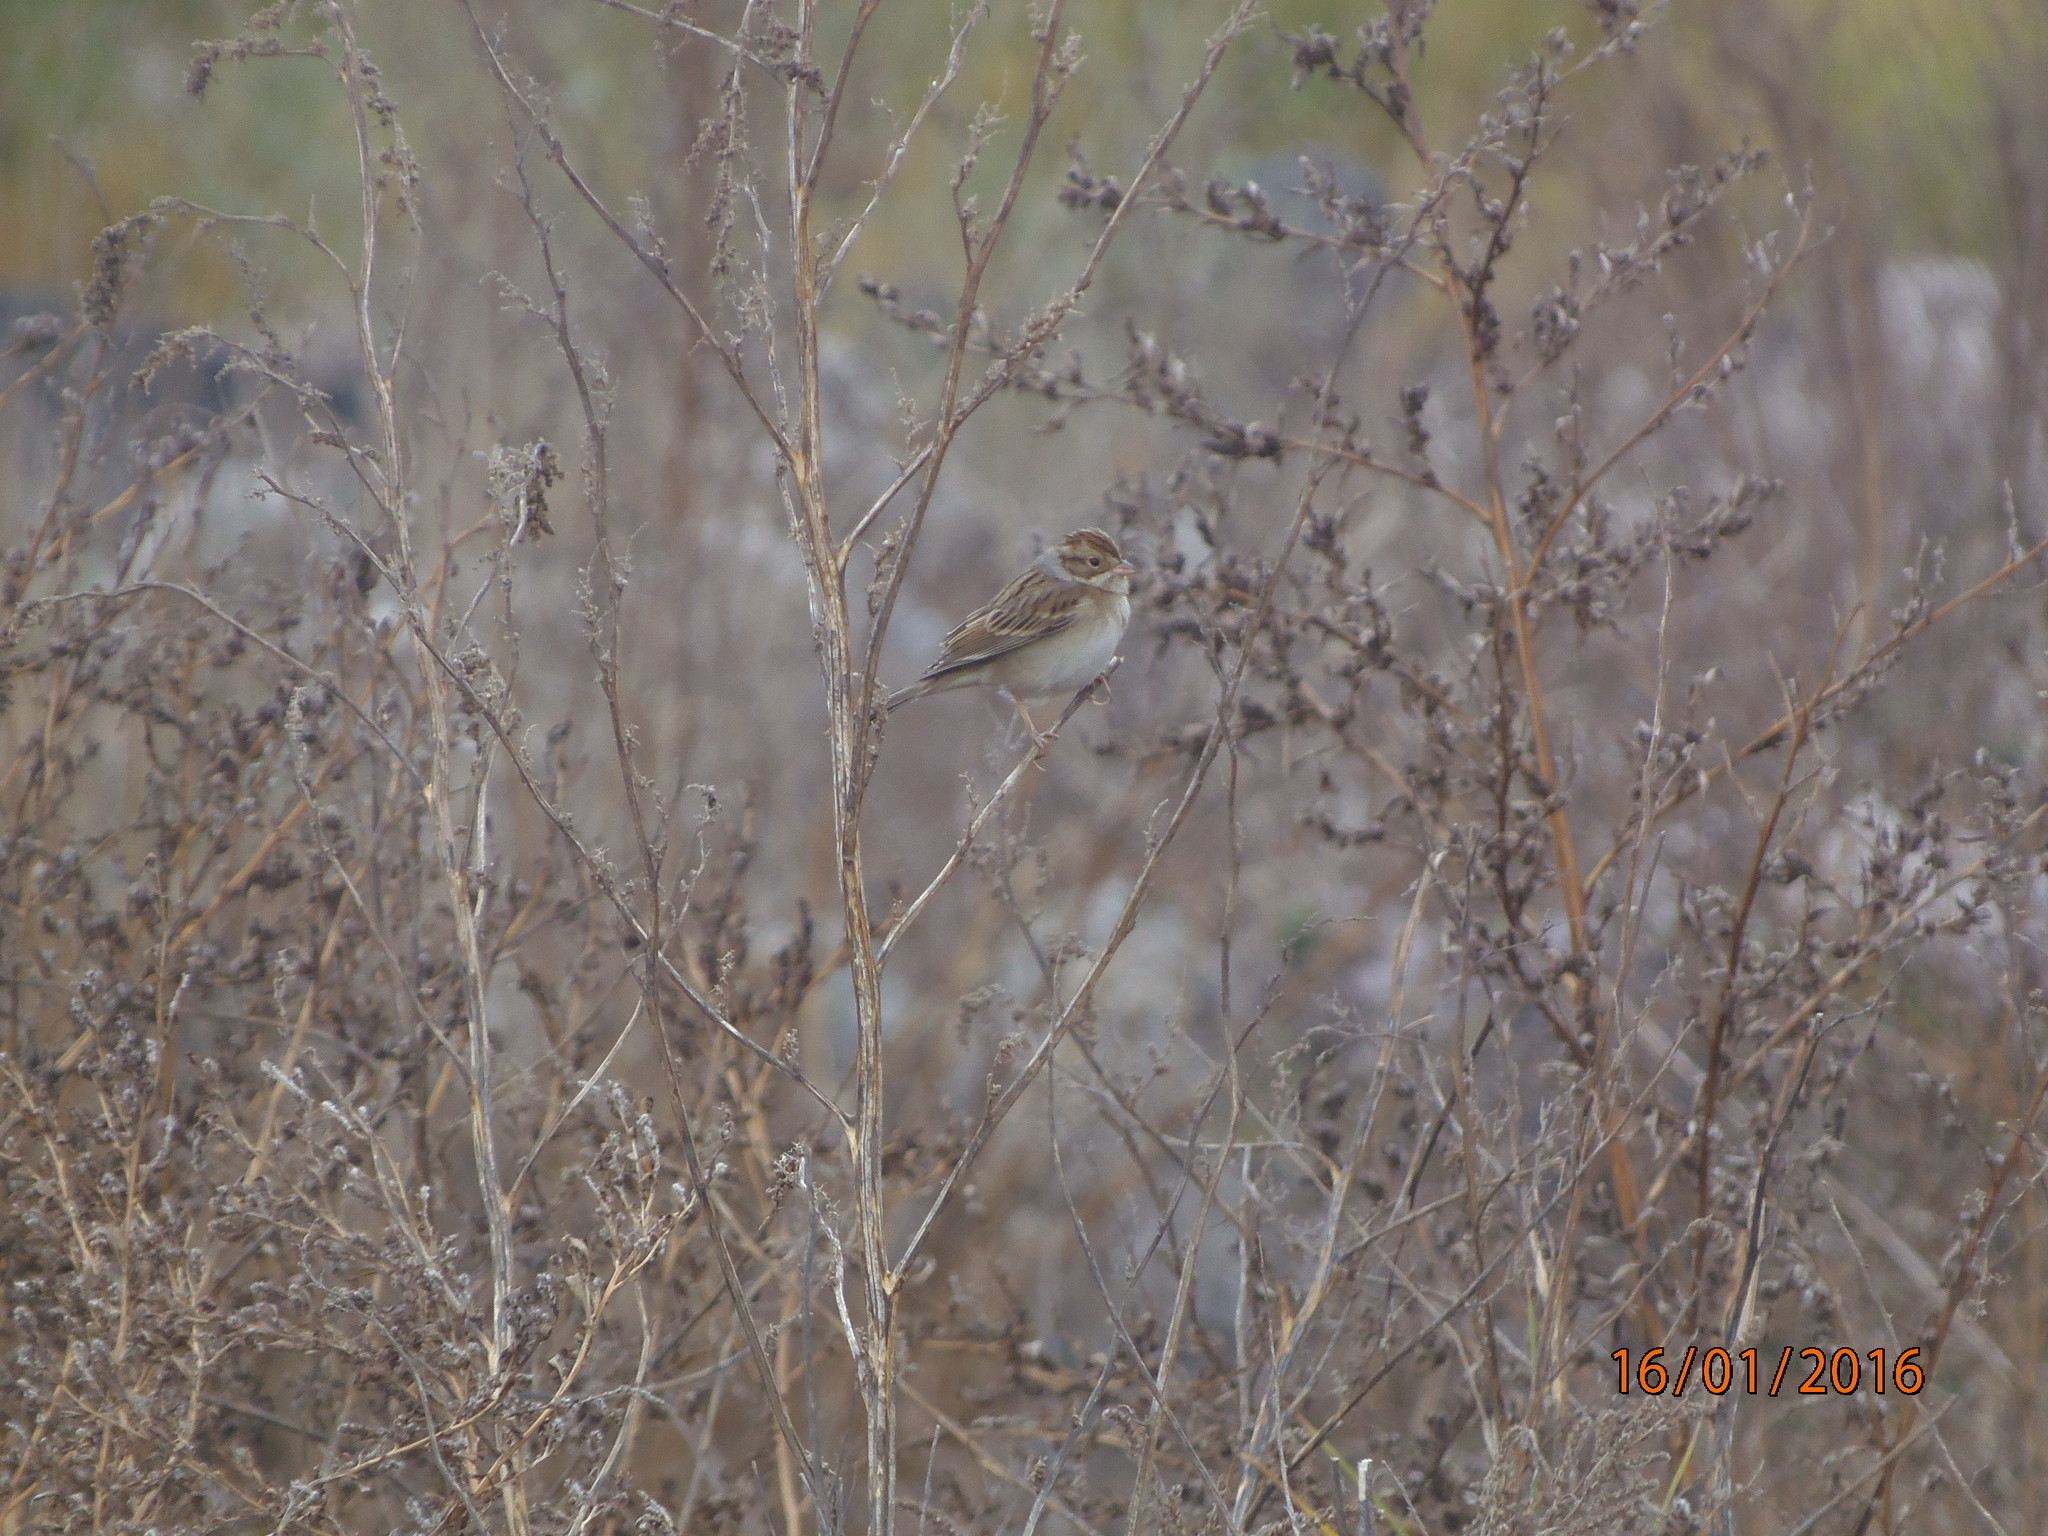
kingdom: Animalia
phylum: Chordata
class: Aves
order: Passeriformes
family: Passerellidae
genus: Spizella
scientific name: Spizella pallida
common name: Clay-colored sparrow
